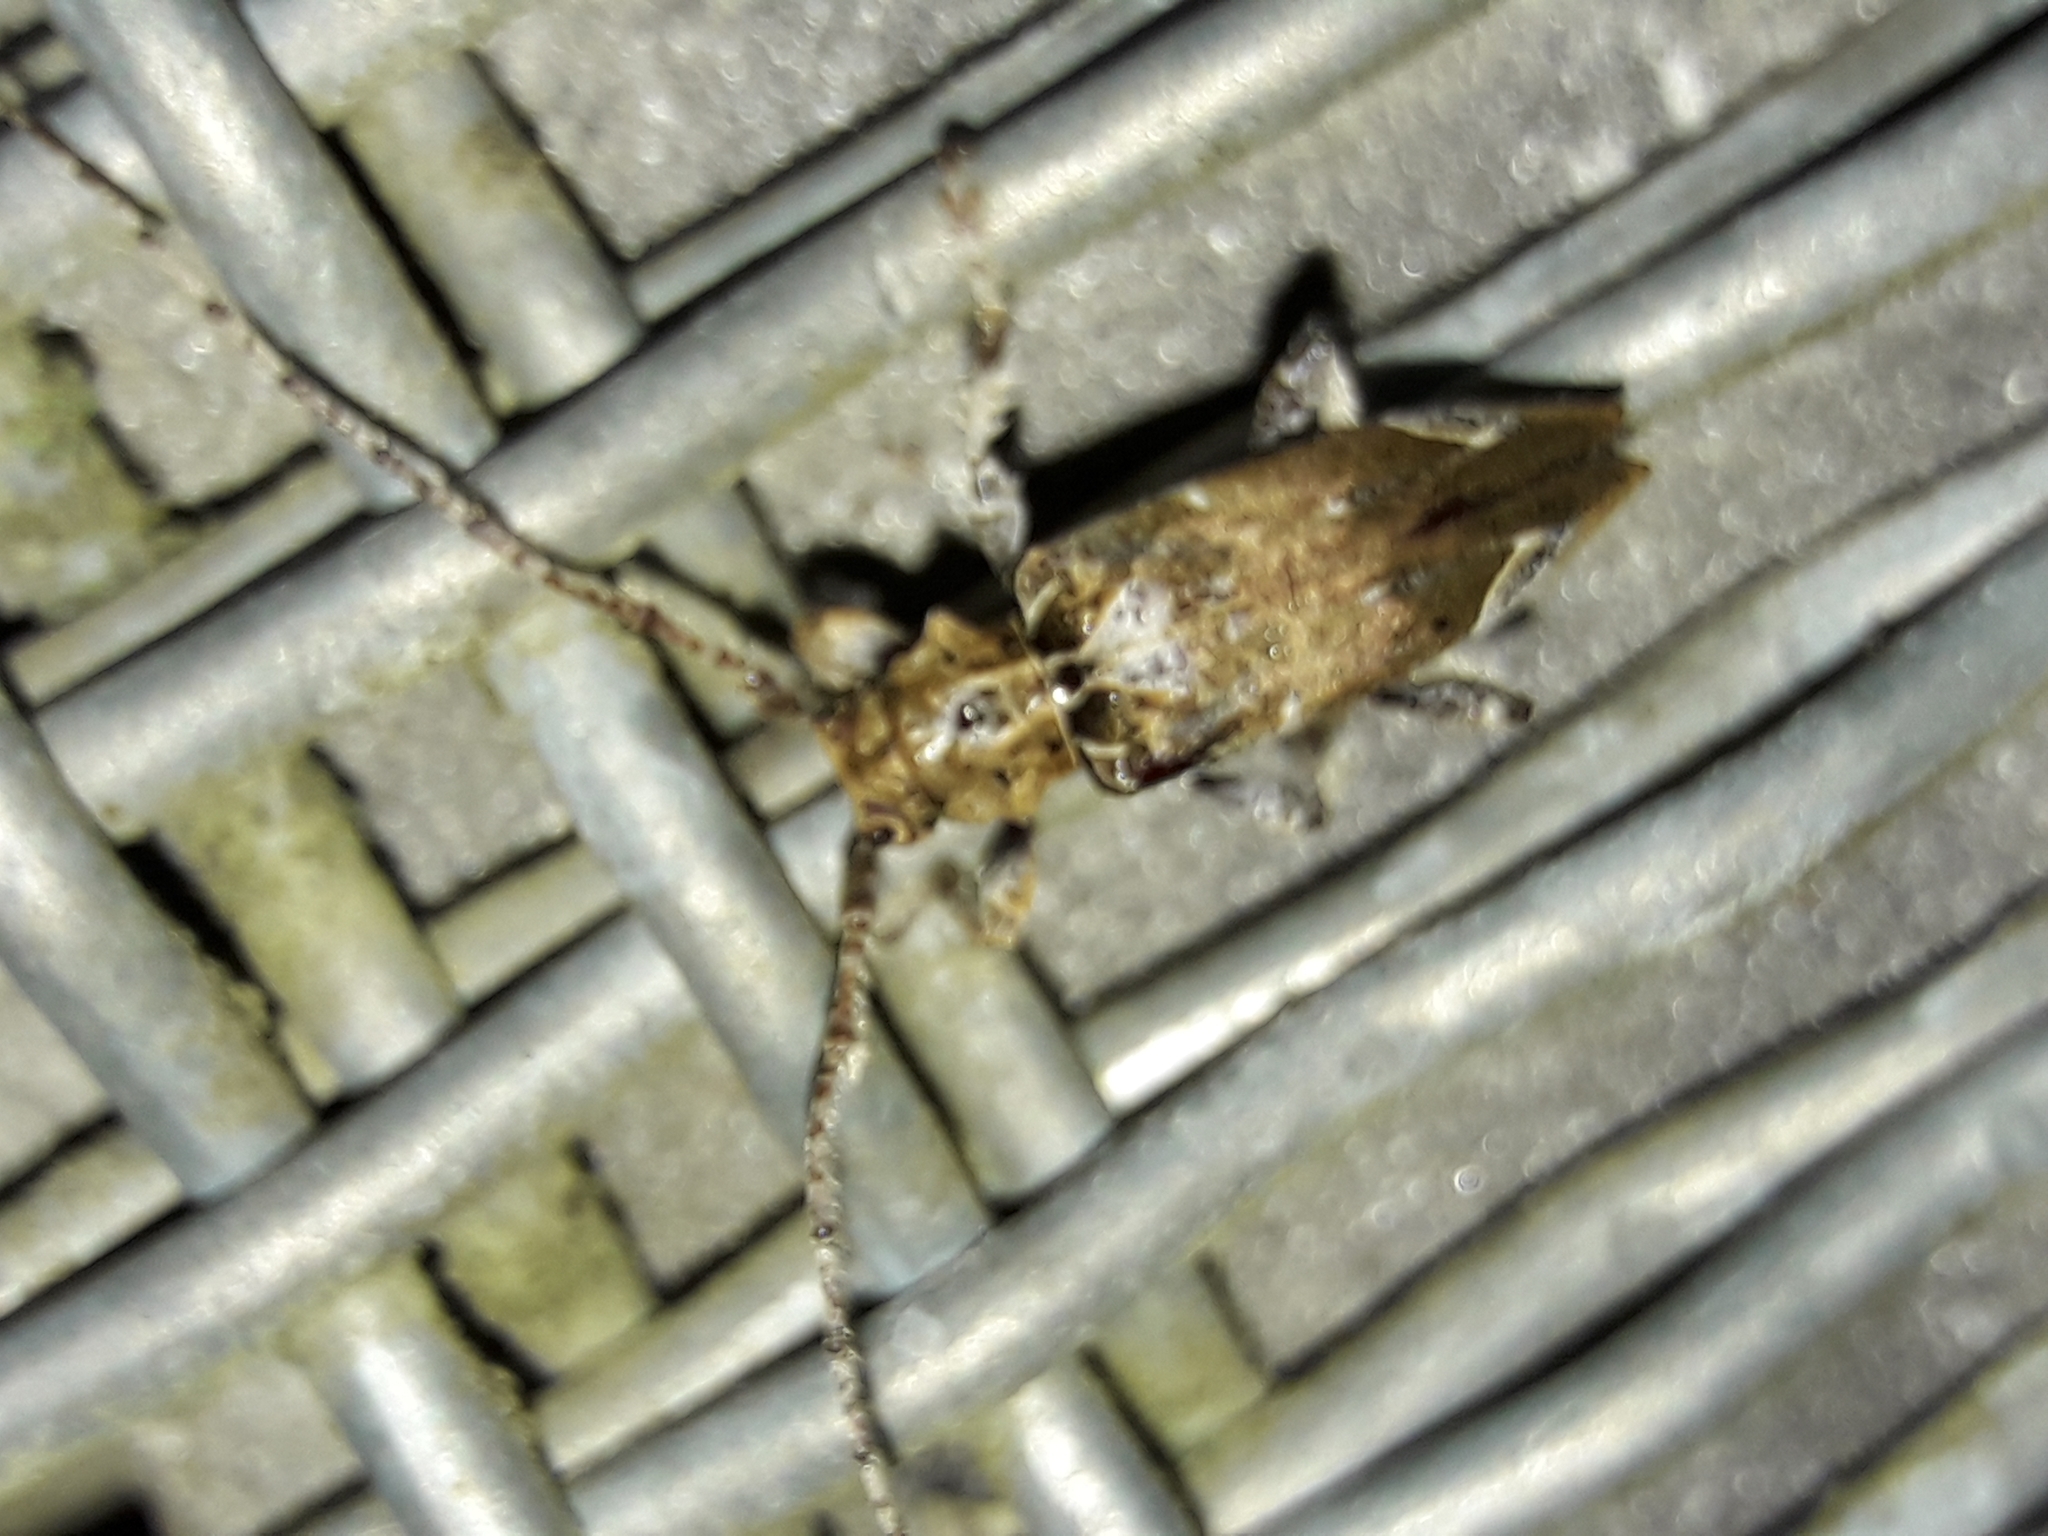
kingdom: Animalia
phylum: Arthropoda
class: Insecta
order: Coleoptera
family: Cerambycidae
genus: Tetrorea
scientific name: Tetrorea cilipes
